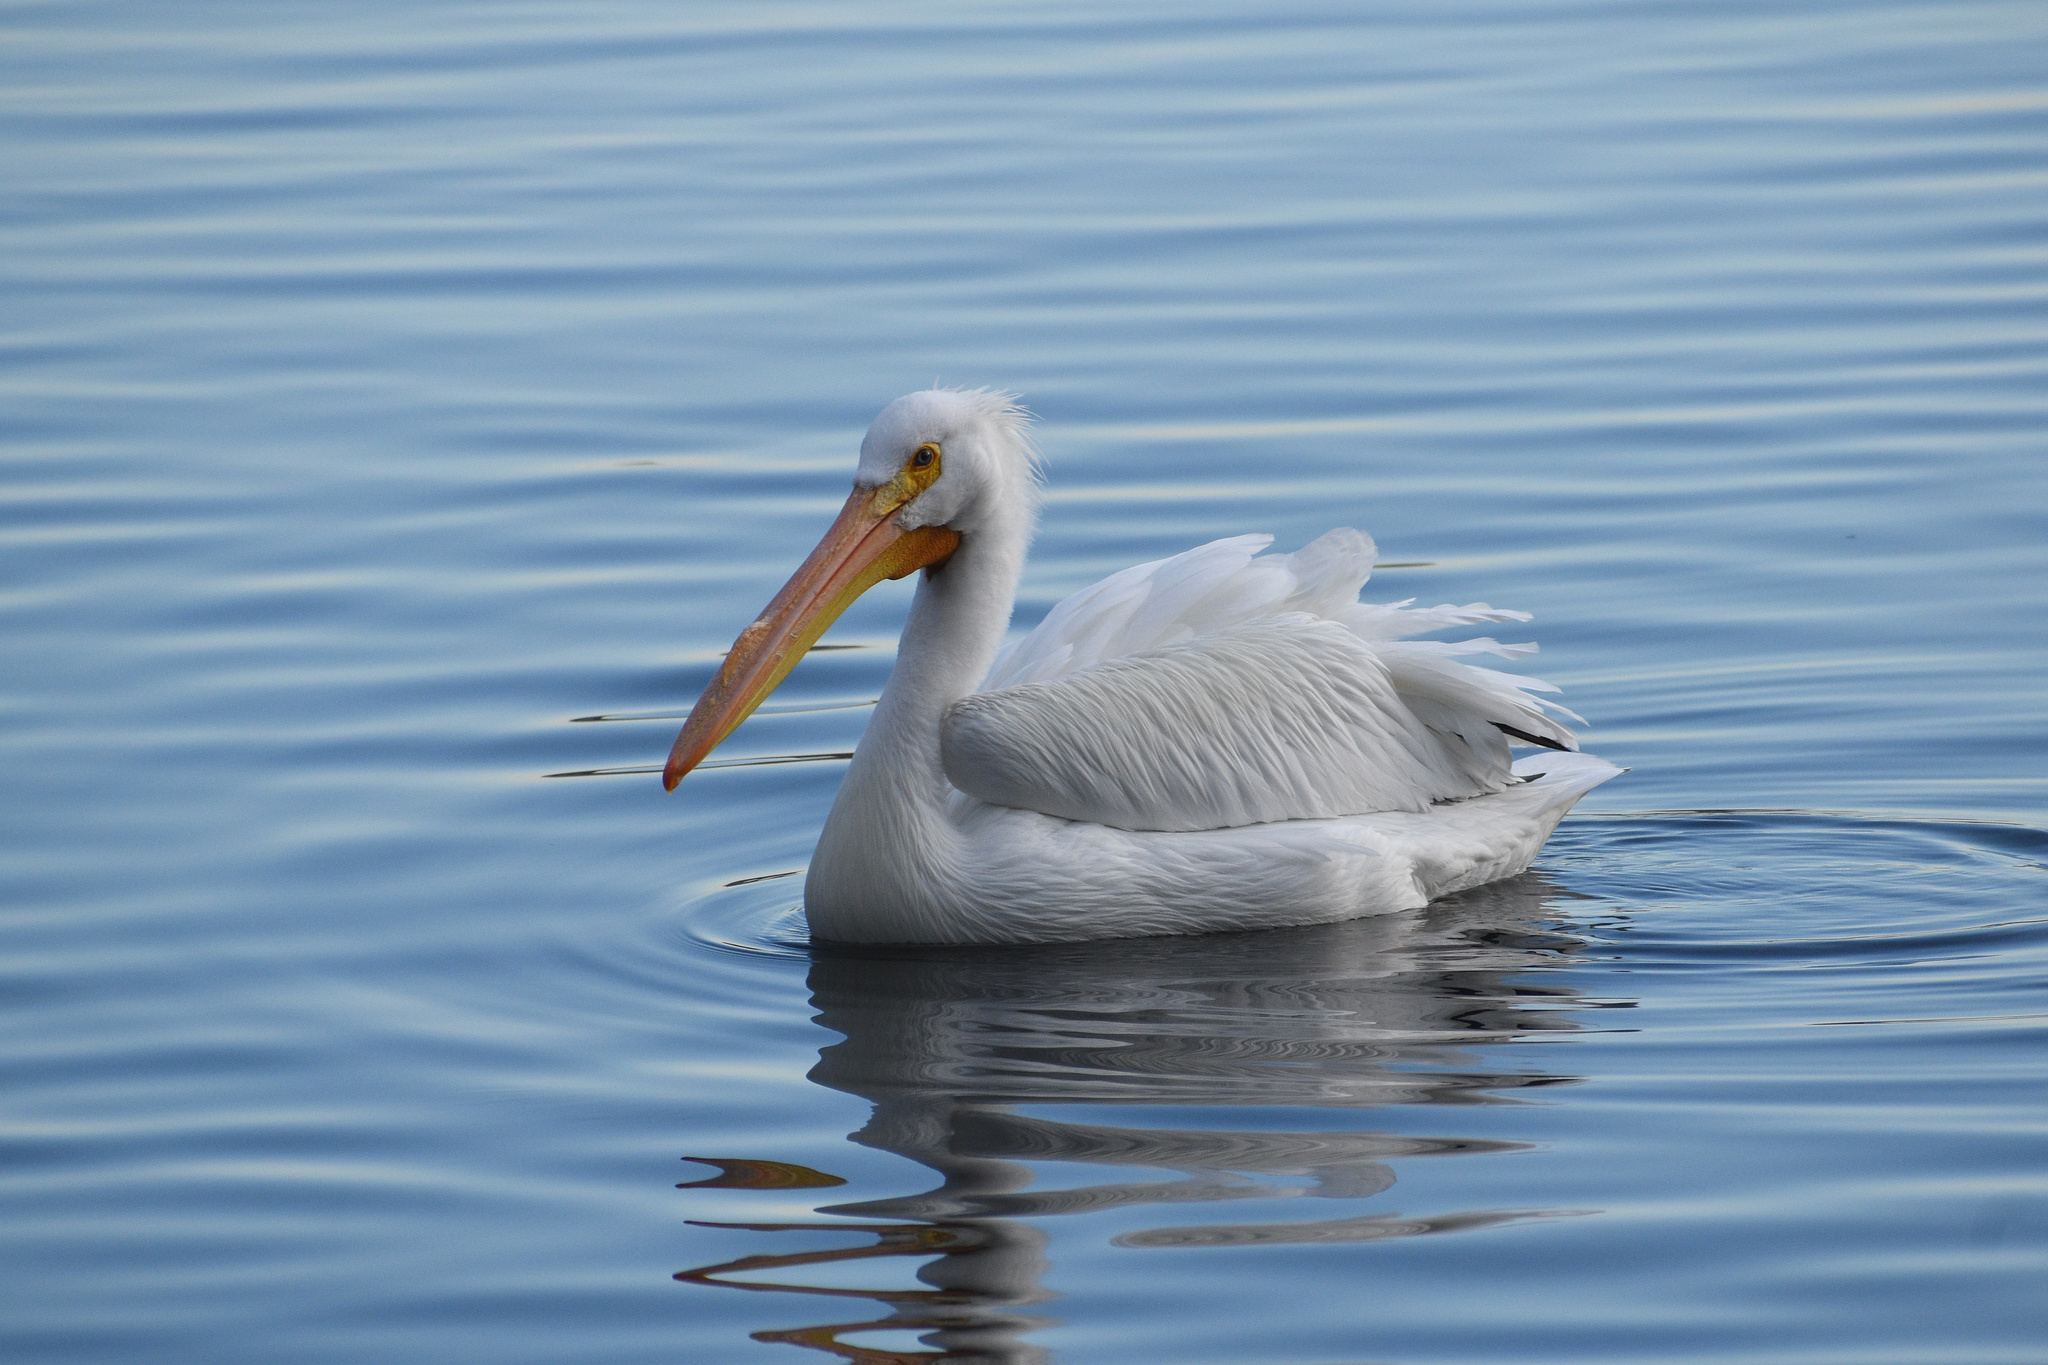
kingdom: Animalia
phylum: Chordata
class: Aves
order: Pelecaniformes
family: Pelecanidae
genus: Pelecanus
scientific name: Pelecanus erythrorhynchos
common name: American white pelican
